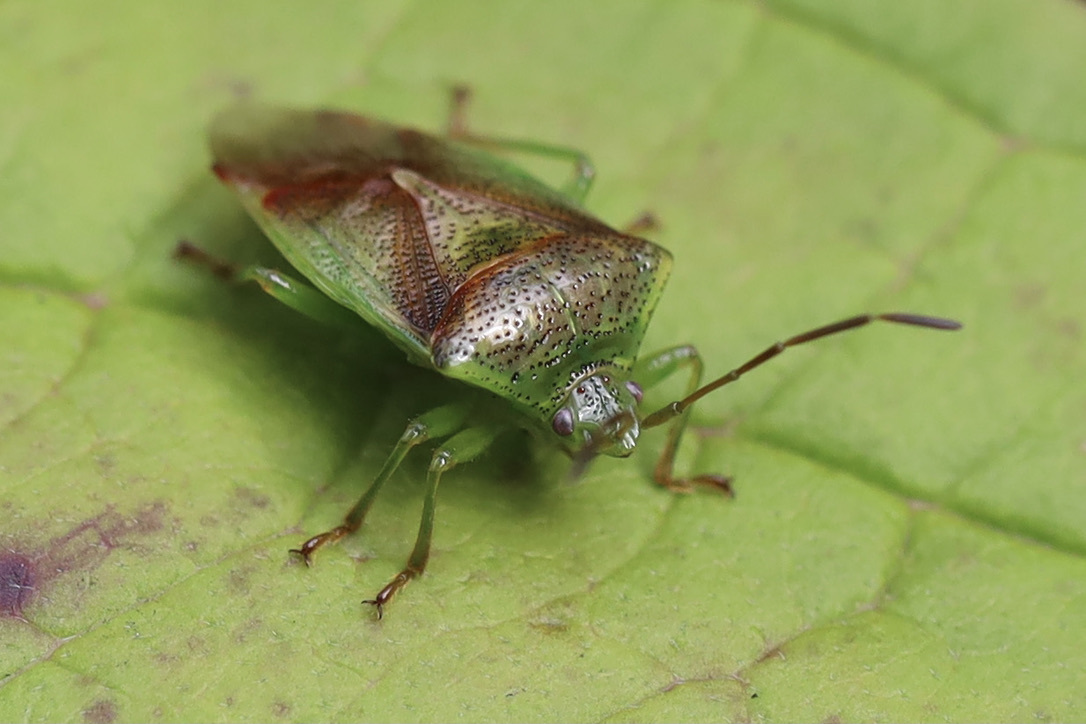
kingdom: Animalia
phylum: Arthropoda
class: Insecta
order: Hemiptera
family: Acanthosomatidae
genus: Elasmostethus
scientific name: Elasmostethus cruciatus
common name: Red-cross shield bug
